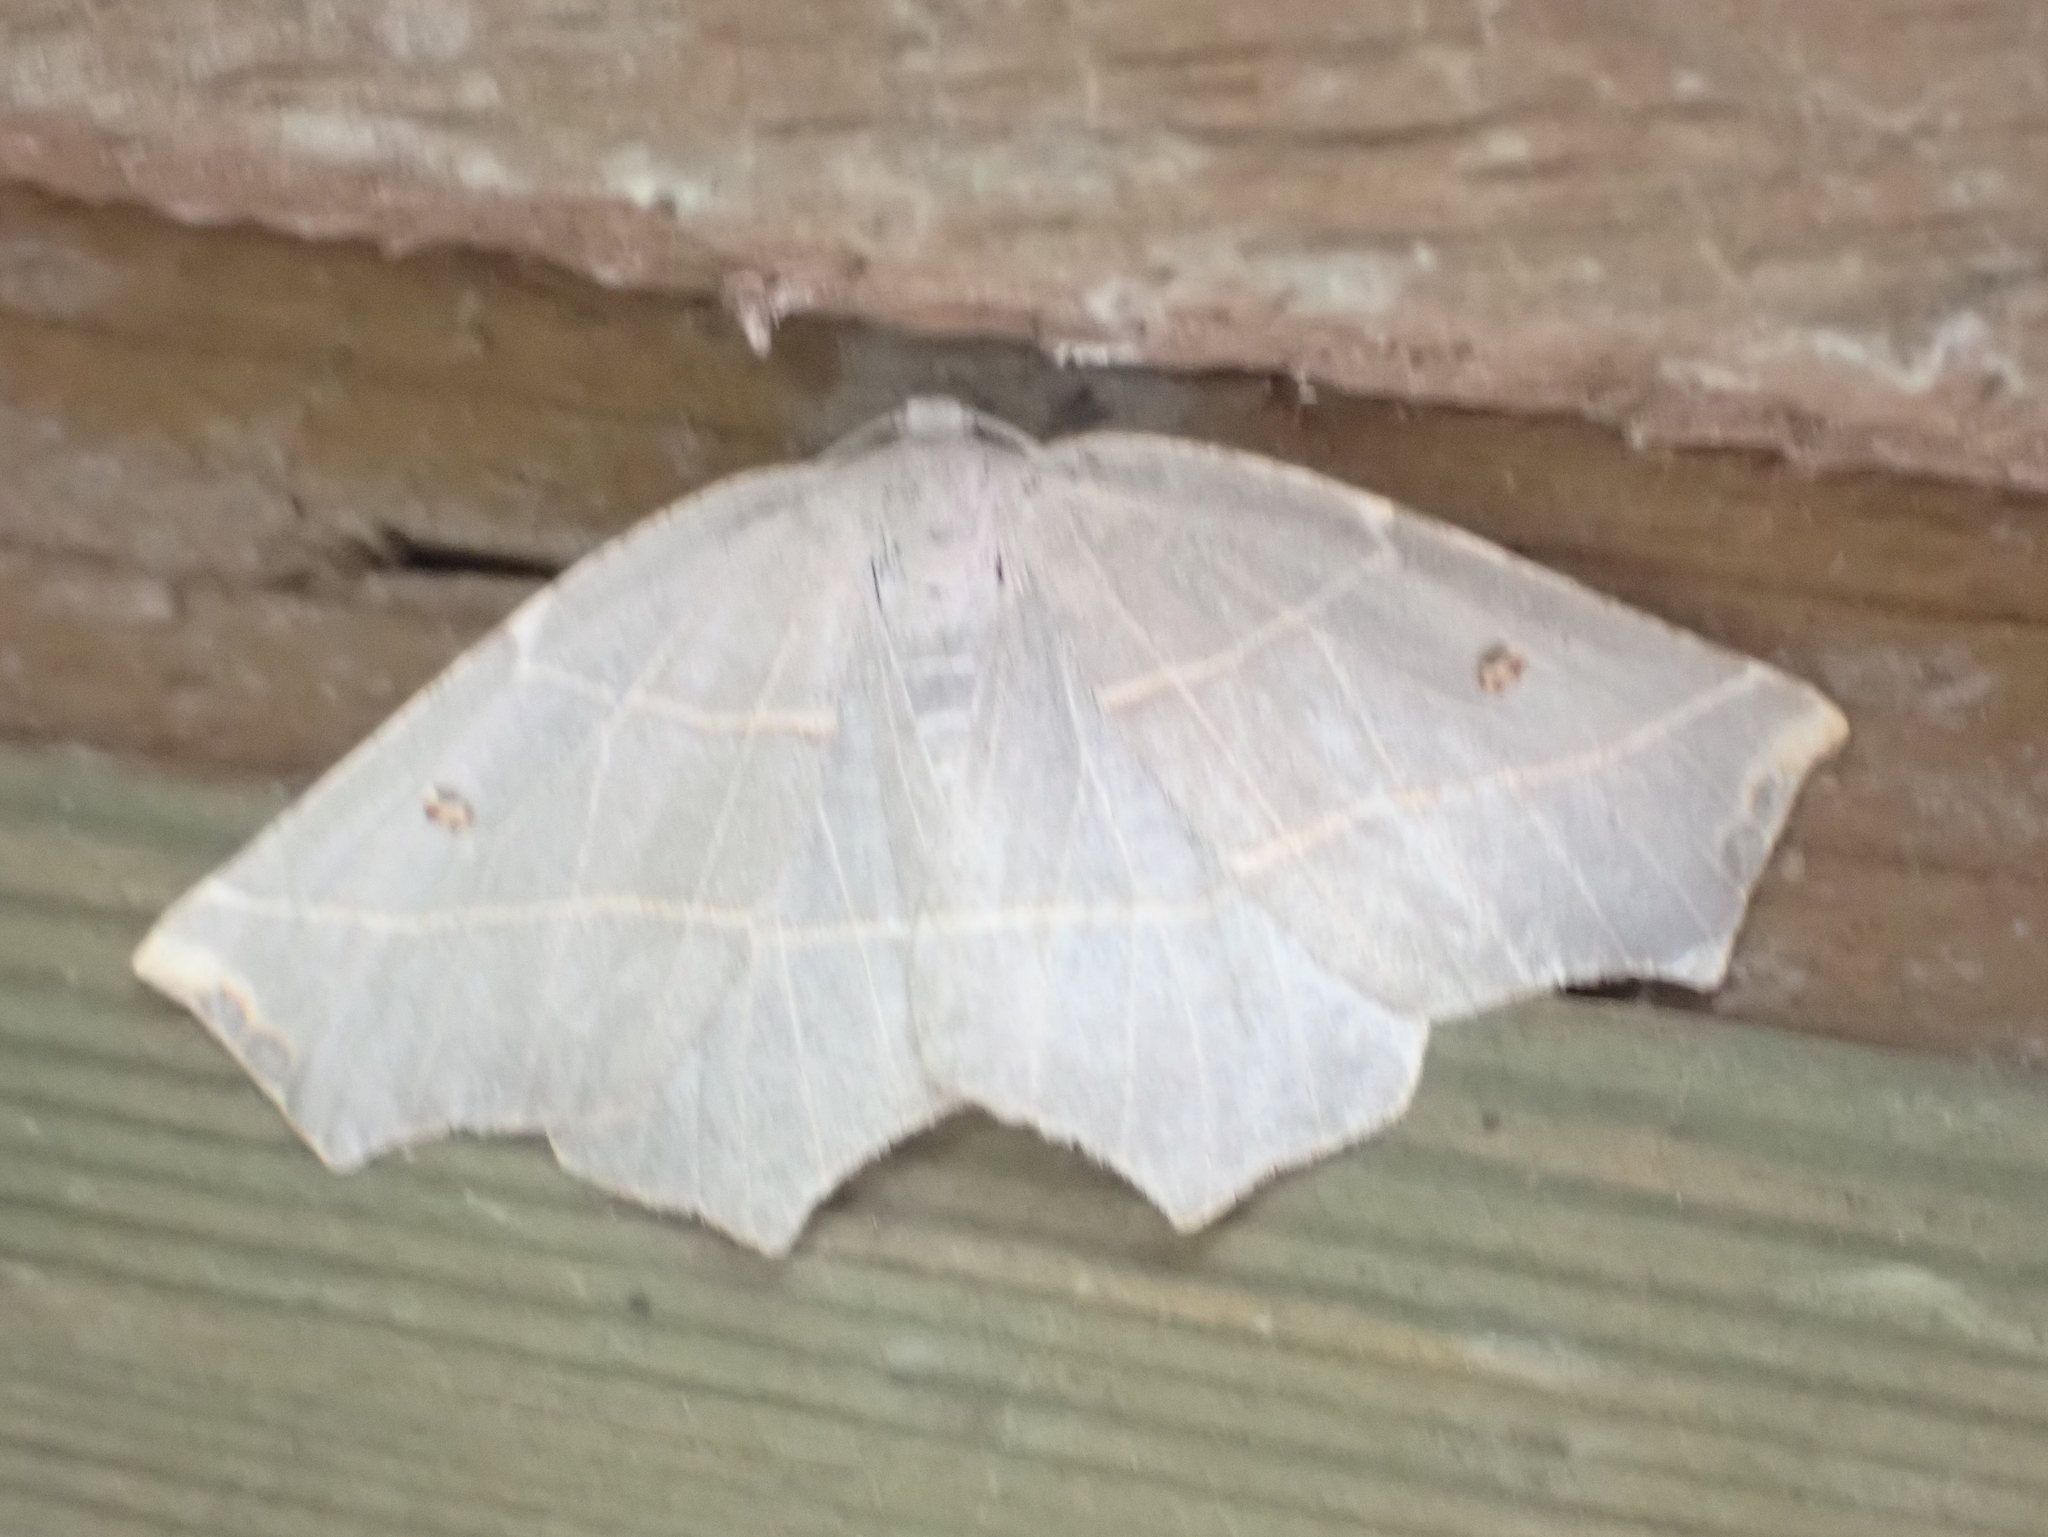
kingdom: Animalia
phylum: Arthropoda
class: Insecta
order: Lepidoptera
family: Geometridae
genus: Metanema
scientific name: Metanema inatomaria
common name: Pale metanema
